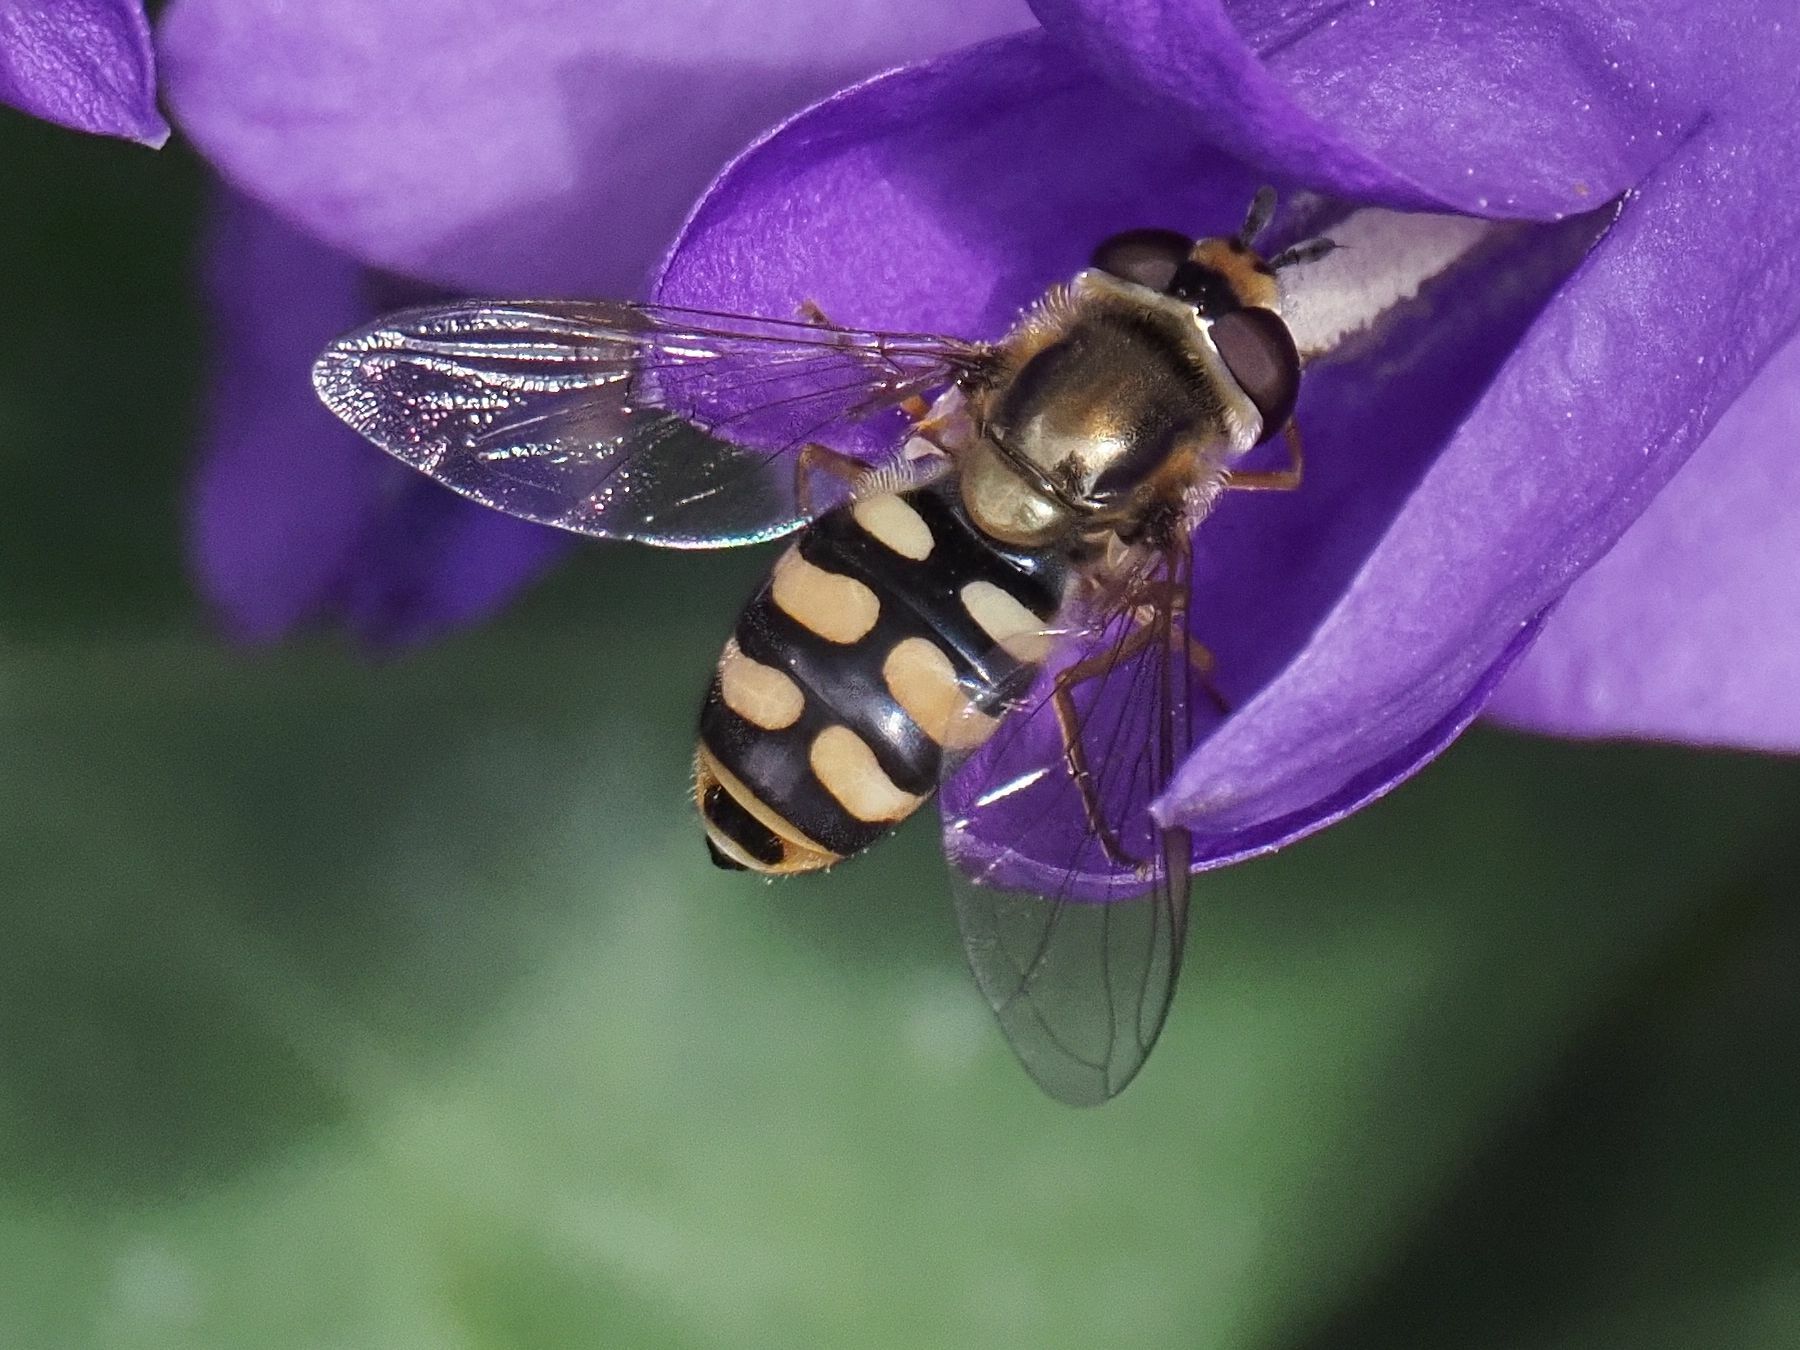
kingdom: Animalia
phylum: Arthropoda
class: Insecta
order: Diptera
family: Syrphidae
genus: Eupeodes
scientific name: Eupeodes corollae
